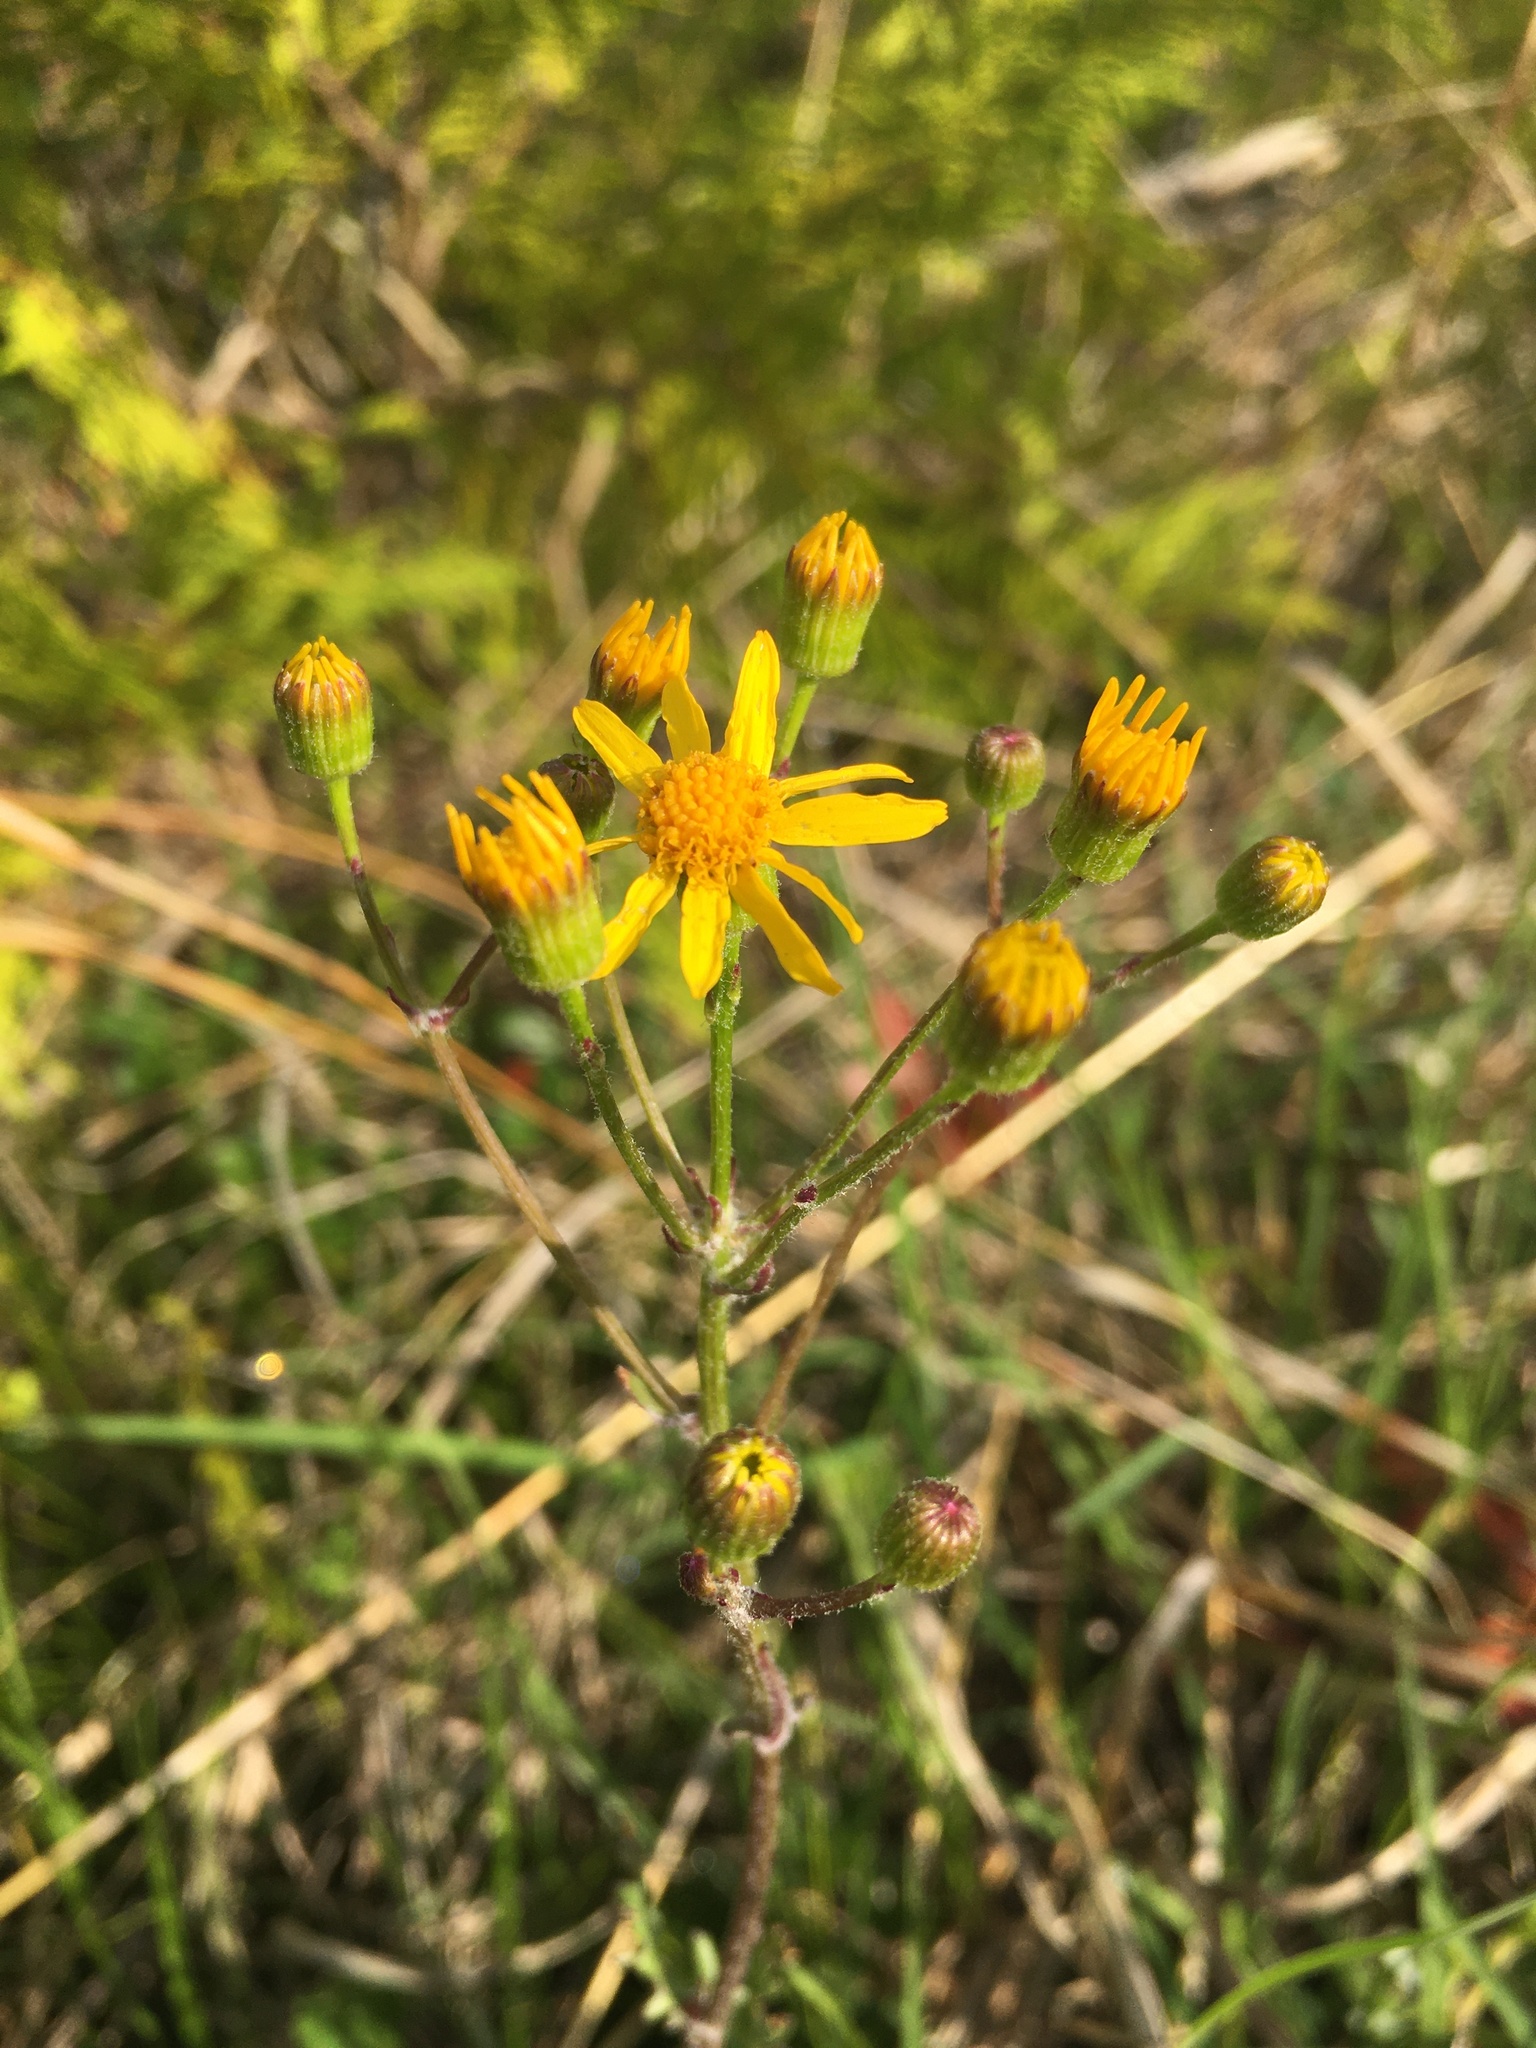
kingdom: Plantae
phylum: Tracheophyta
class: Magnoliopsida
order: Asterales
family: Asteraceae
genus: Packera
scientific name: Packera paupercula
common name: Balsam groundsel
